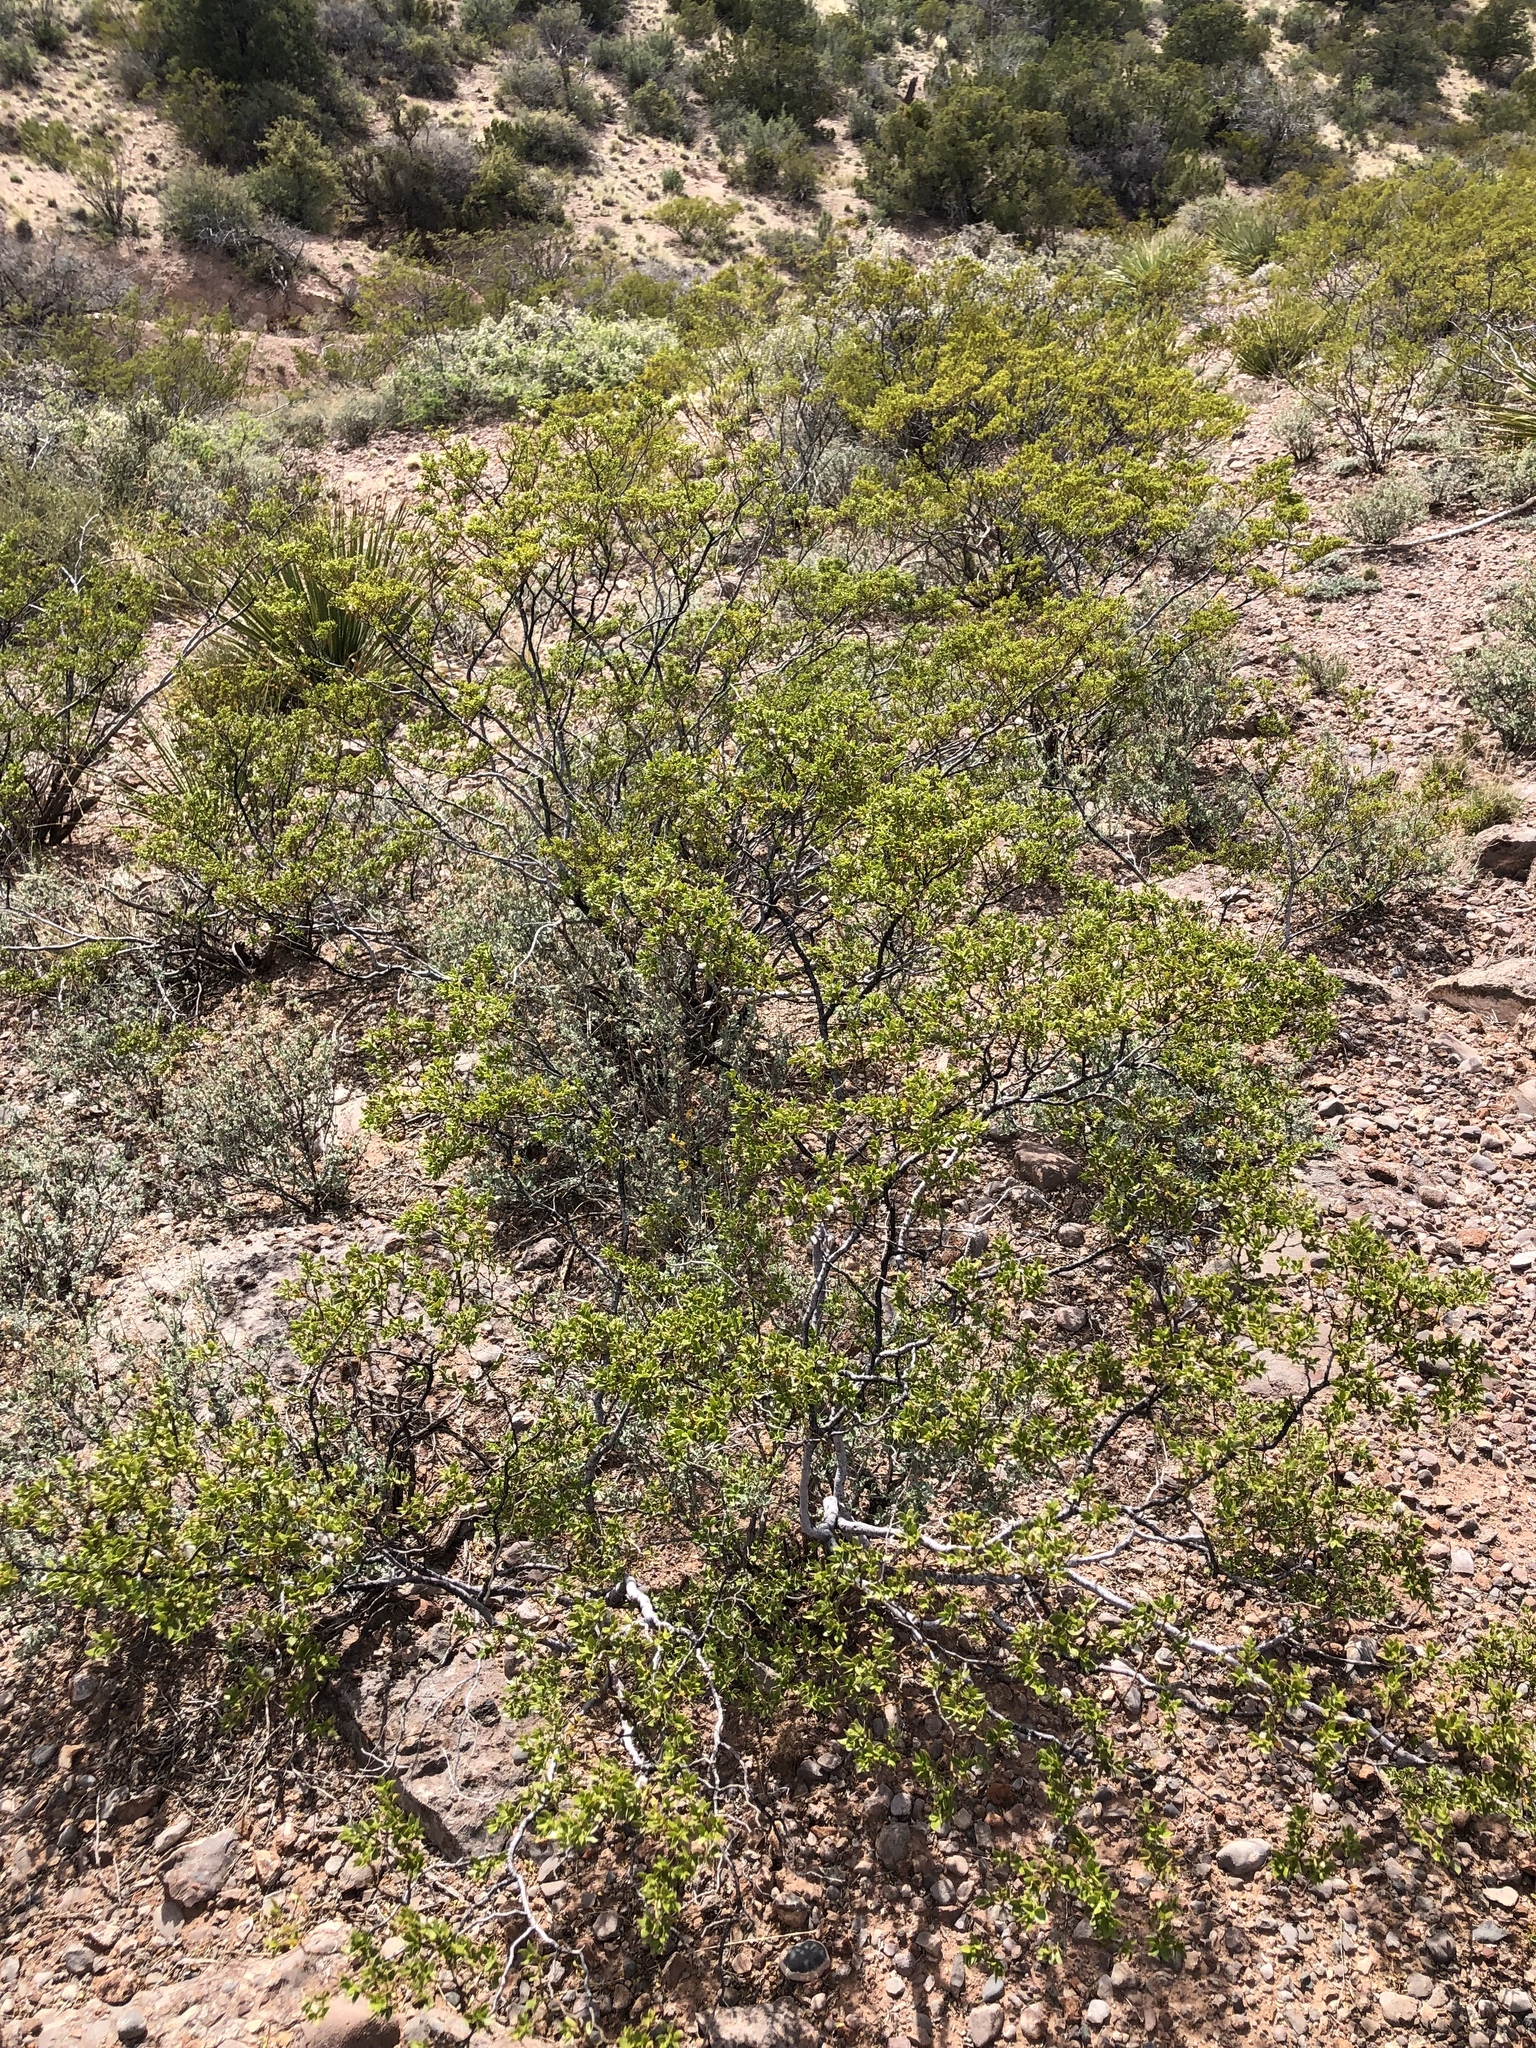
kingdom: Plantae
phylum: Tracheophyta
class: Magnoliopsida
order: Zygophyllales
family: Zygophyllaceae
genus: Larrea
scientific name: Larrea tridentata
